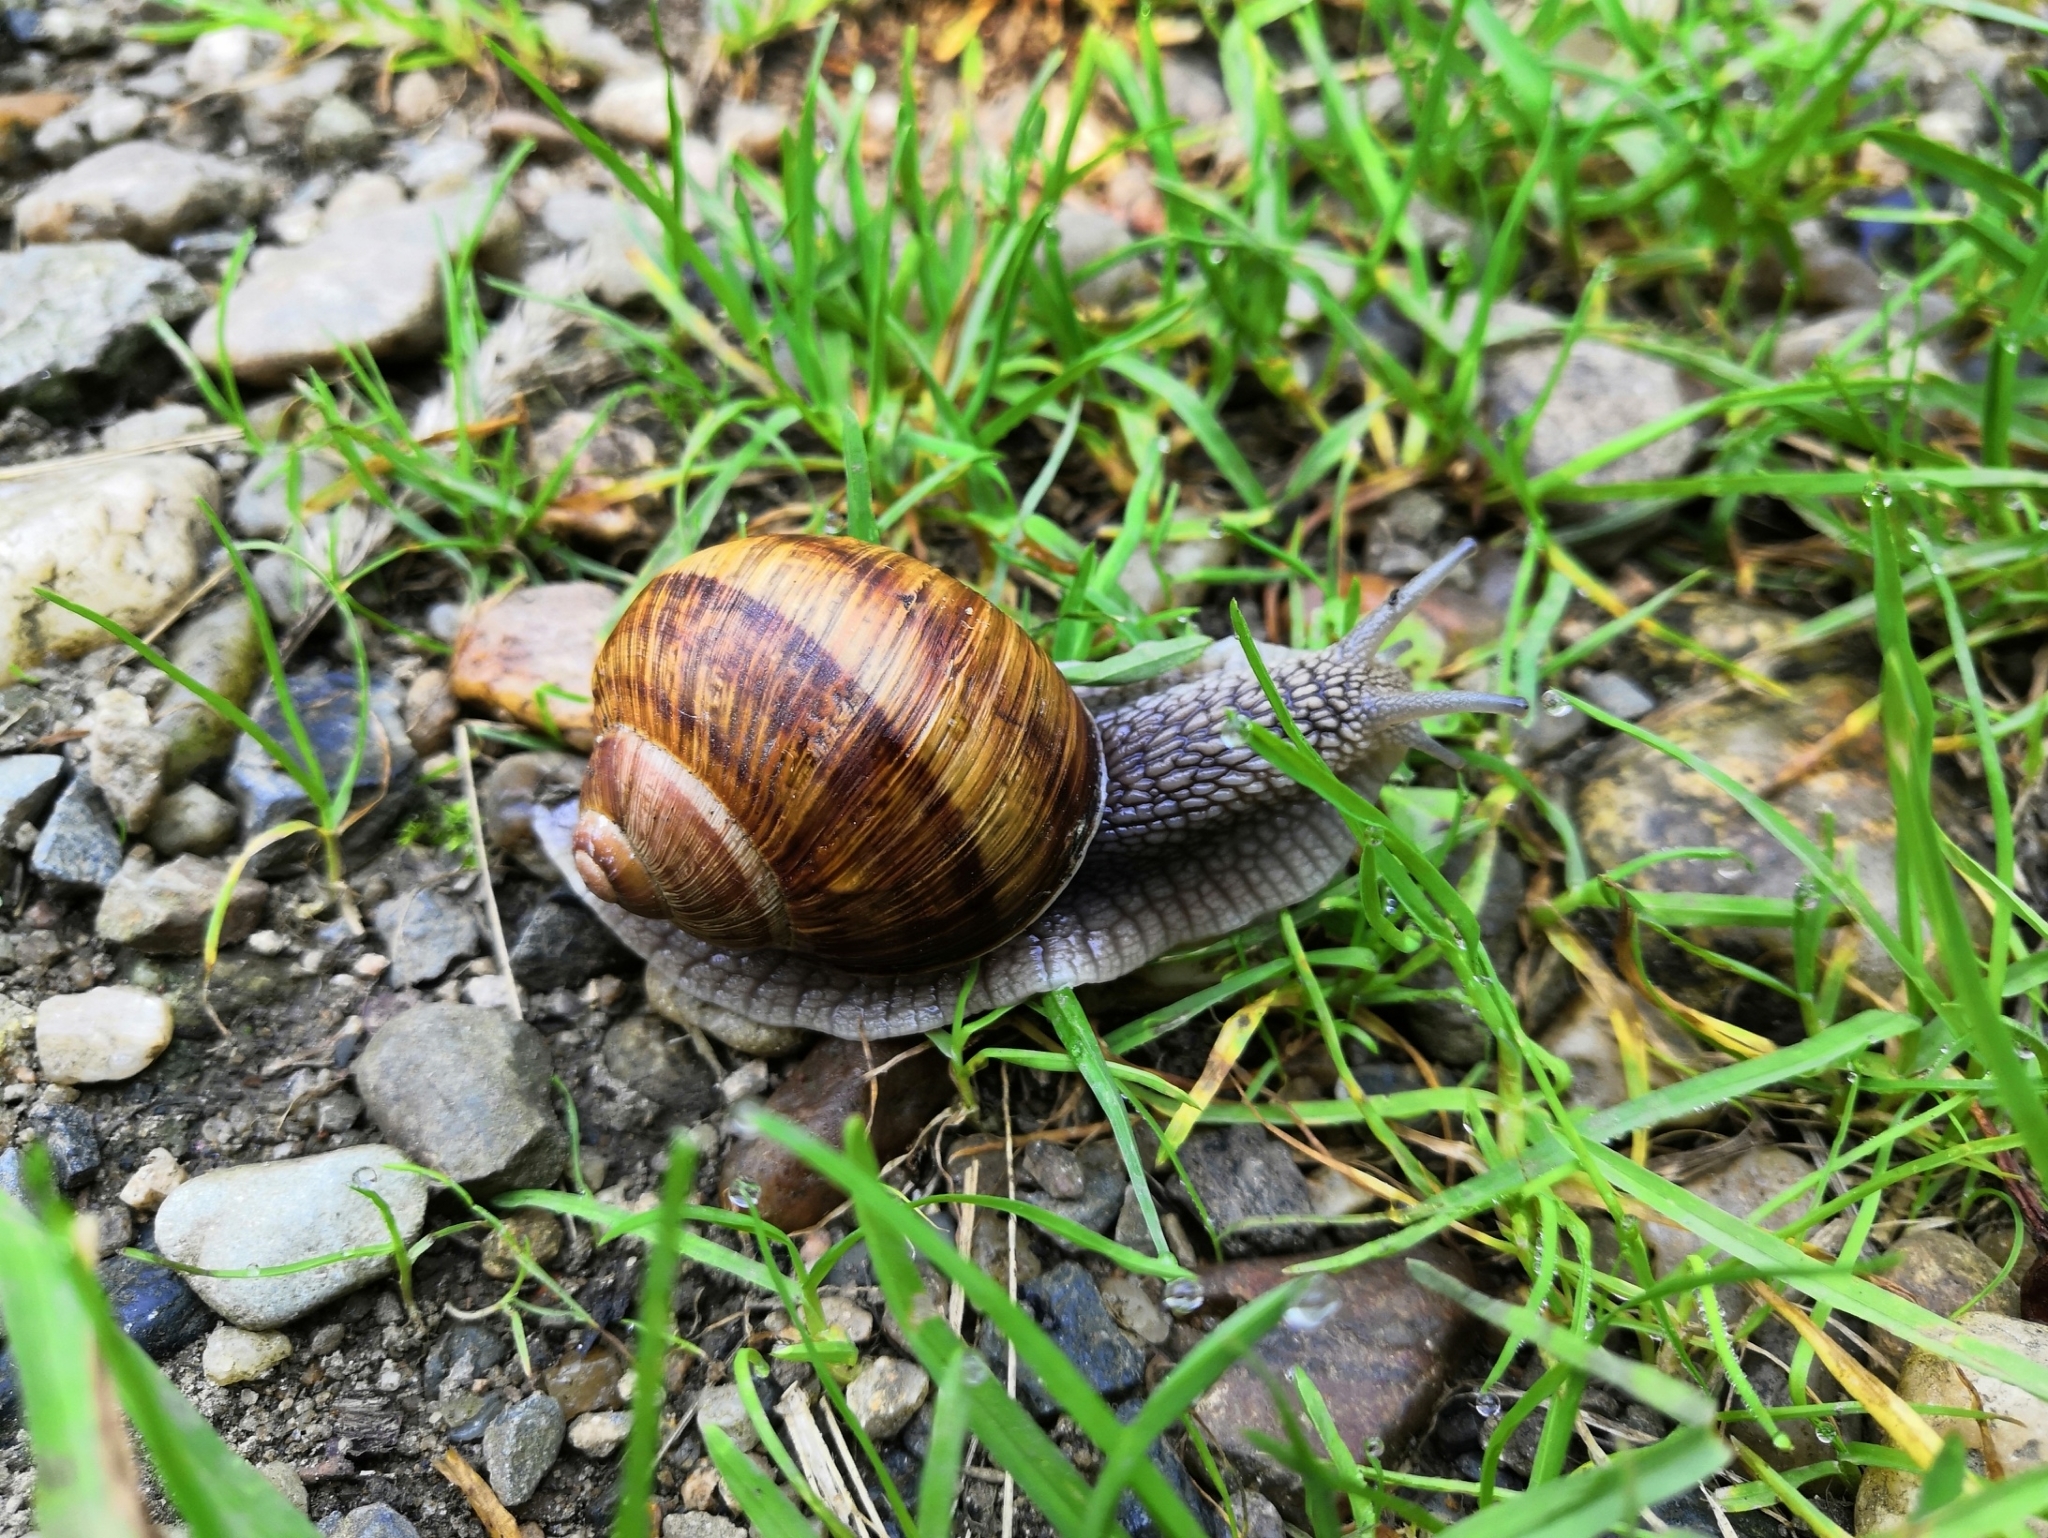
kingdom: Animalia
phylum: Mollusca
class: Gastropoda
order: Stylommatophora
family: Helicidae
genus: Helix
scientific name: Helix pomatia
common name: Roman snail
